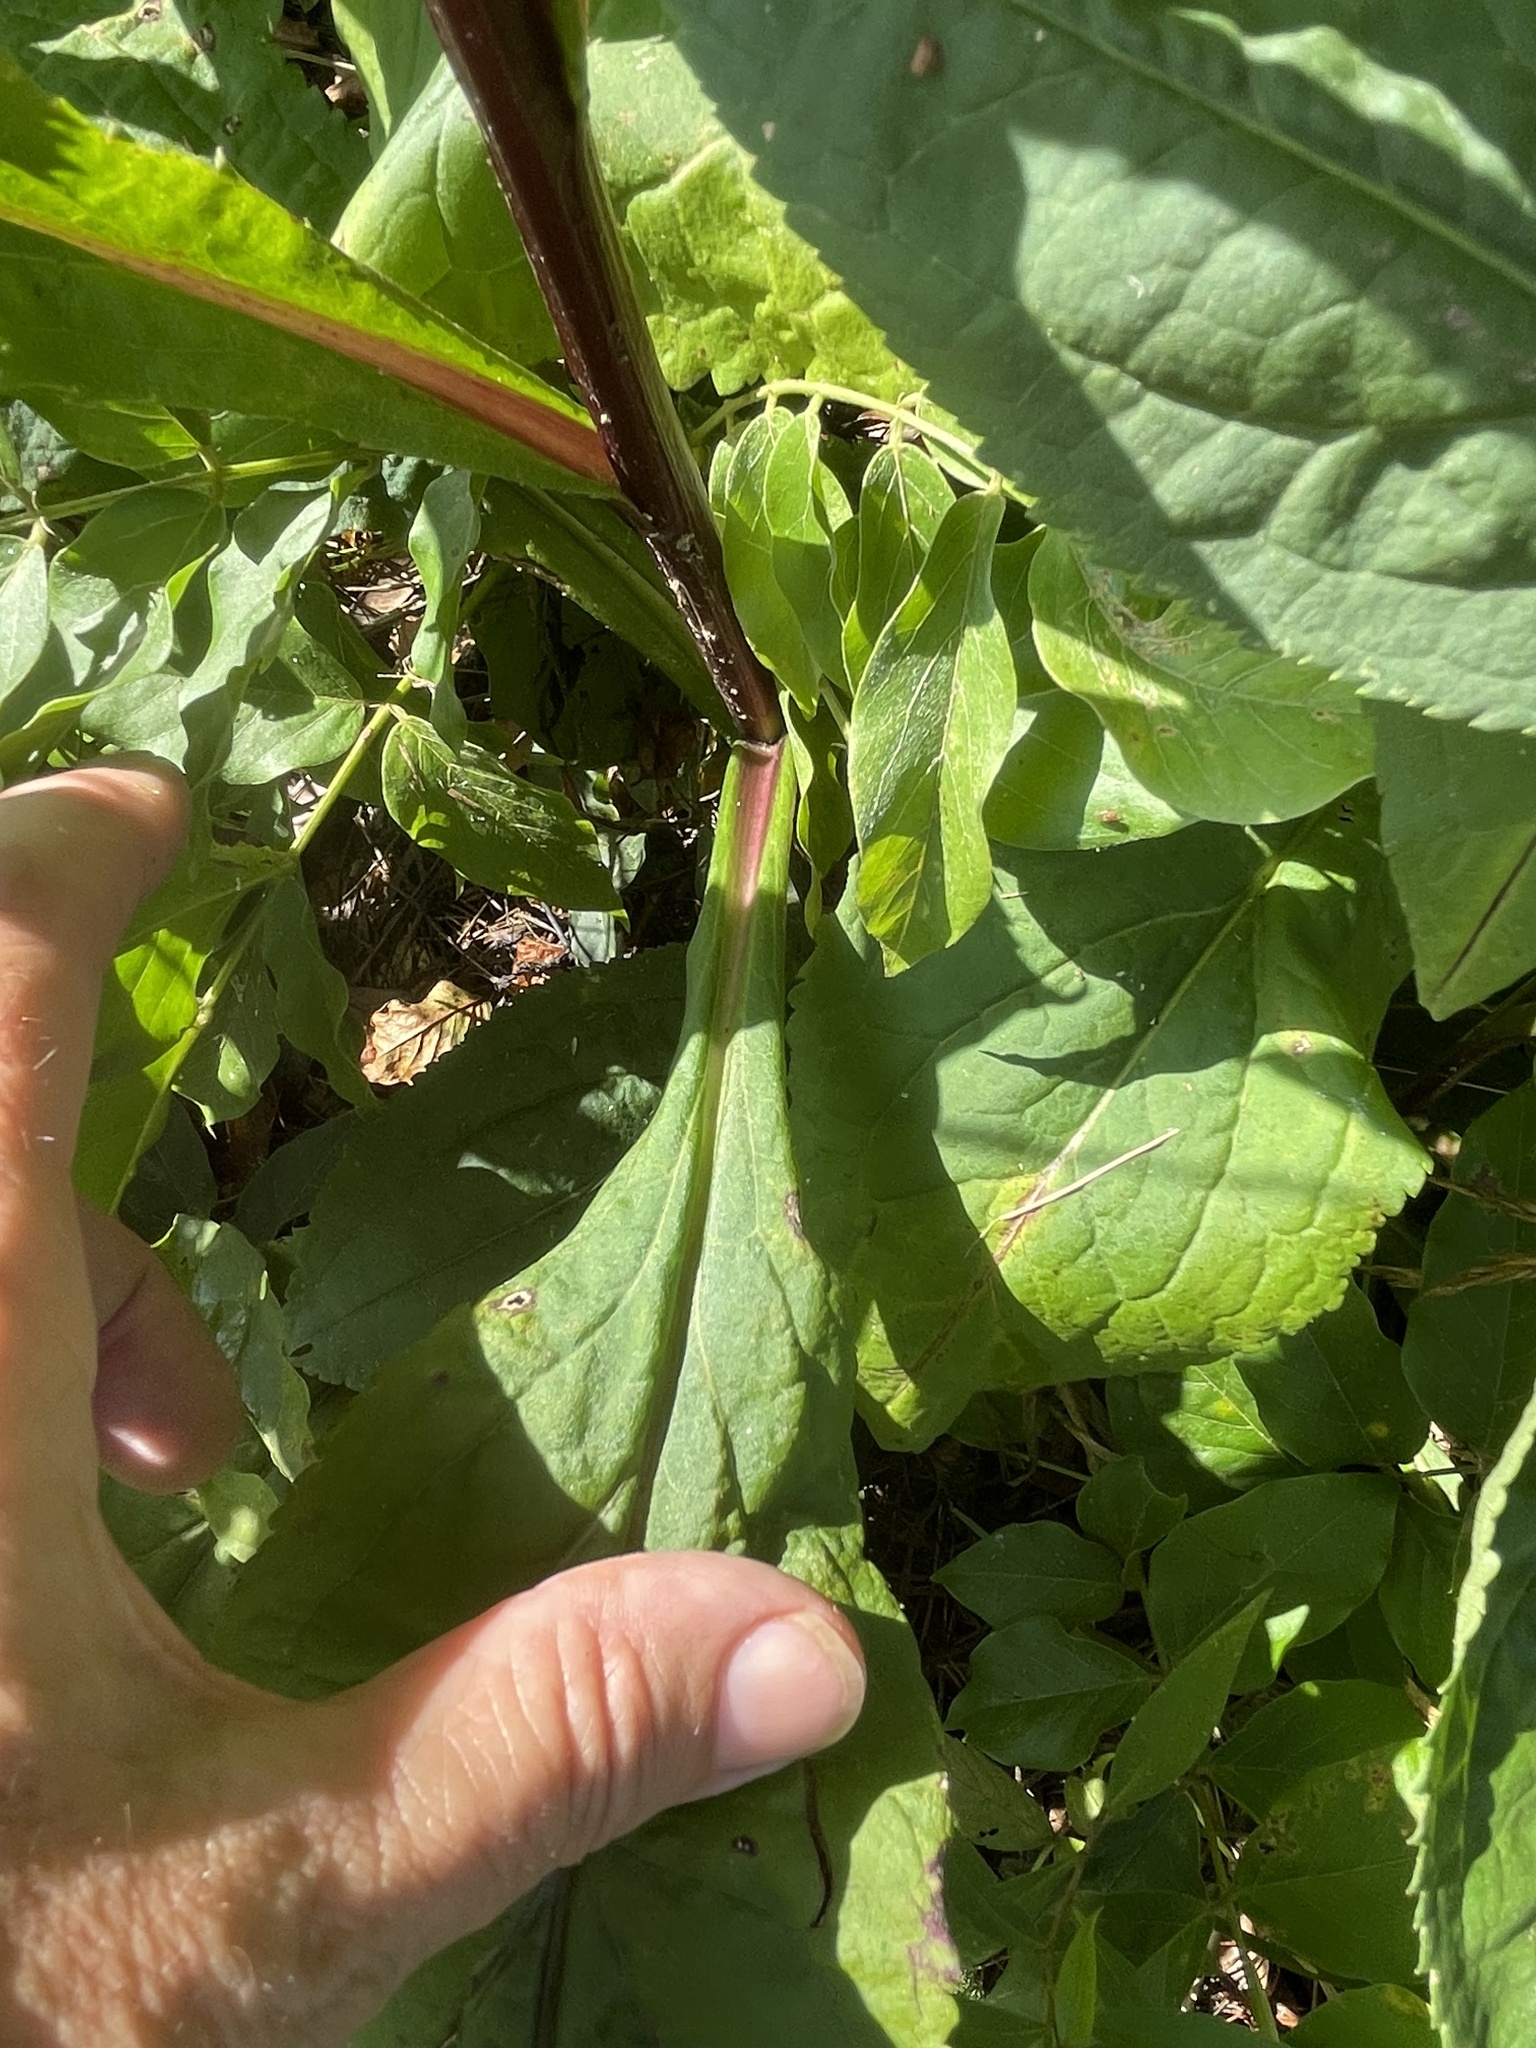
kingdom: Plantae
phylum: Tracheophyta
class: Magnoliopsida
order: Asterales
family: Asteraceae
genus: Solidago
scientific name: Solidago patula
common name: Rough-leaf goldenrod
